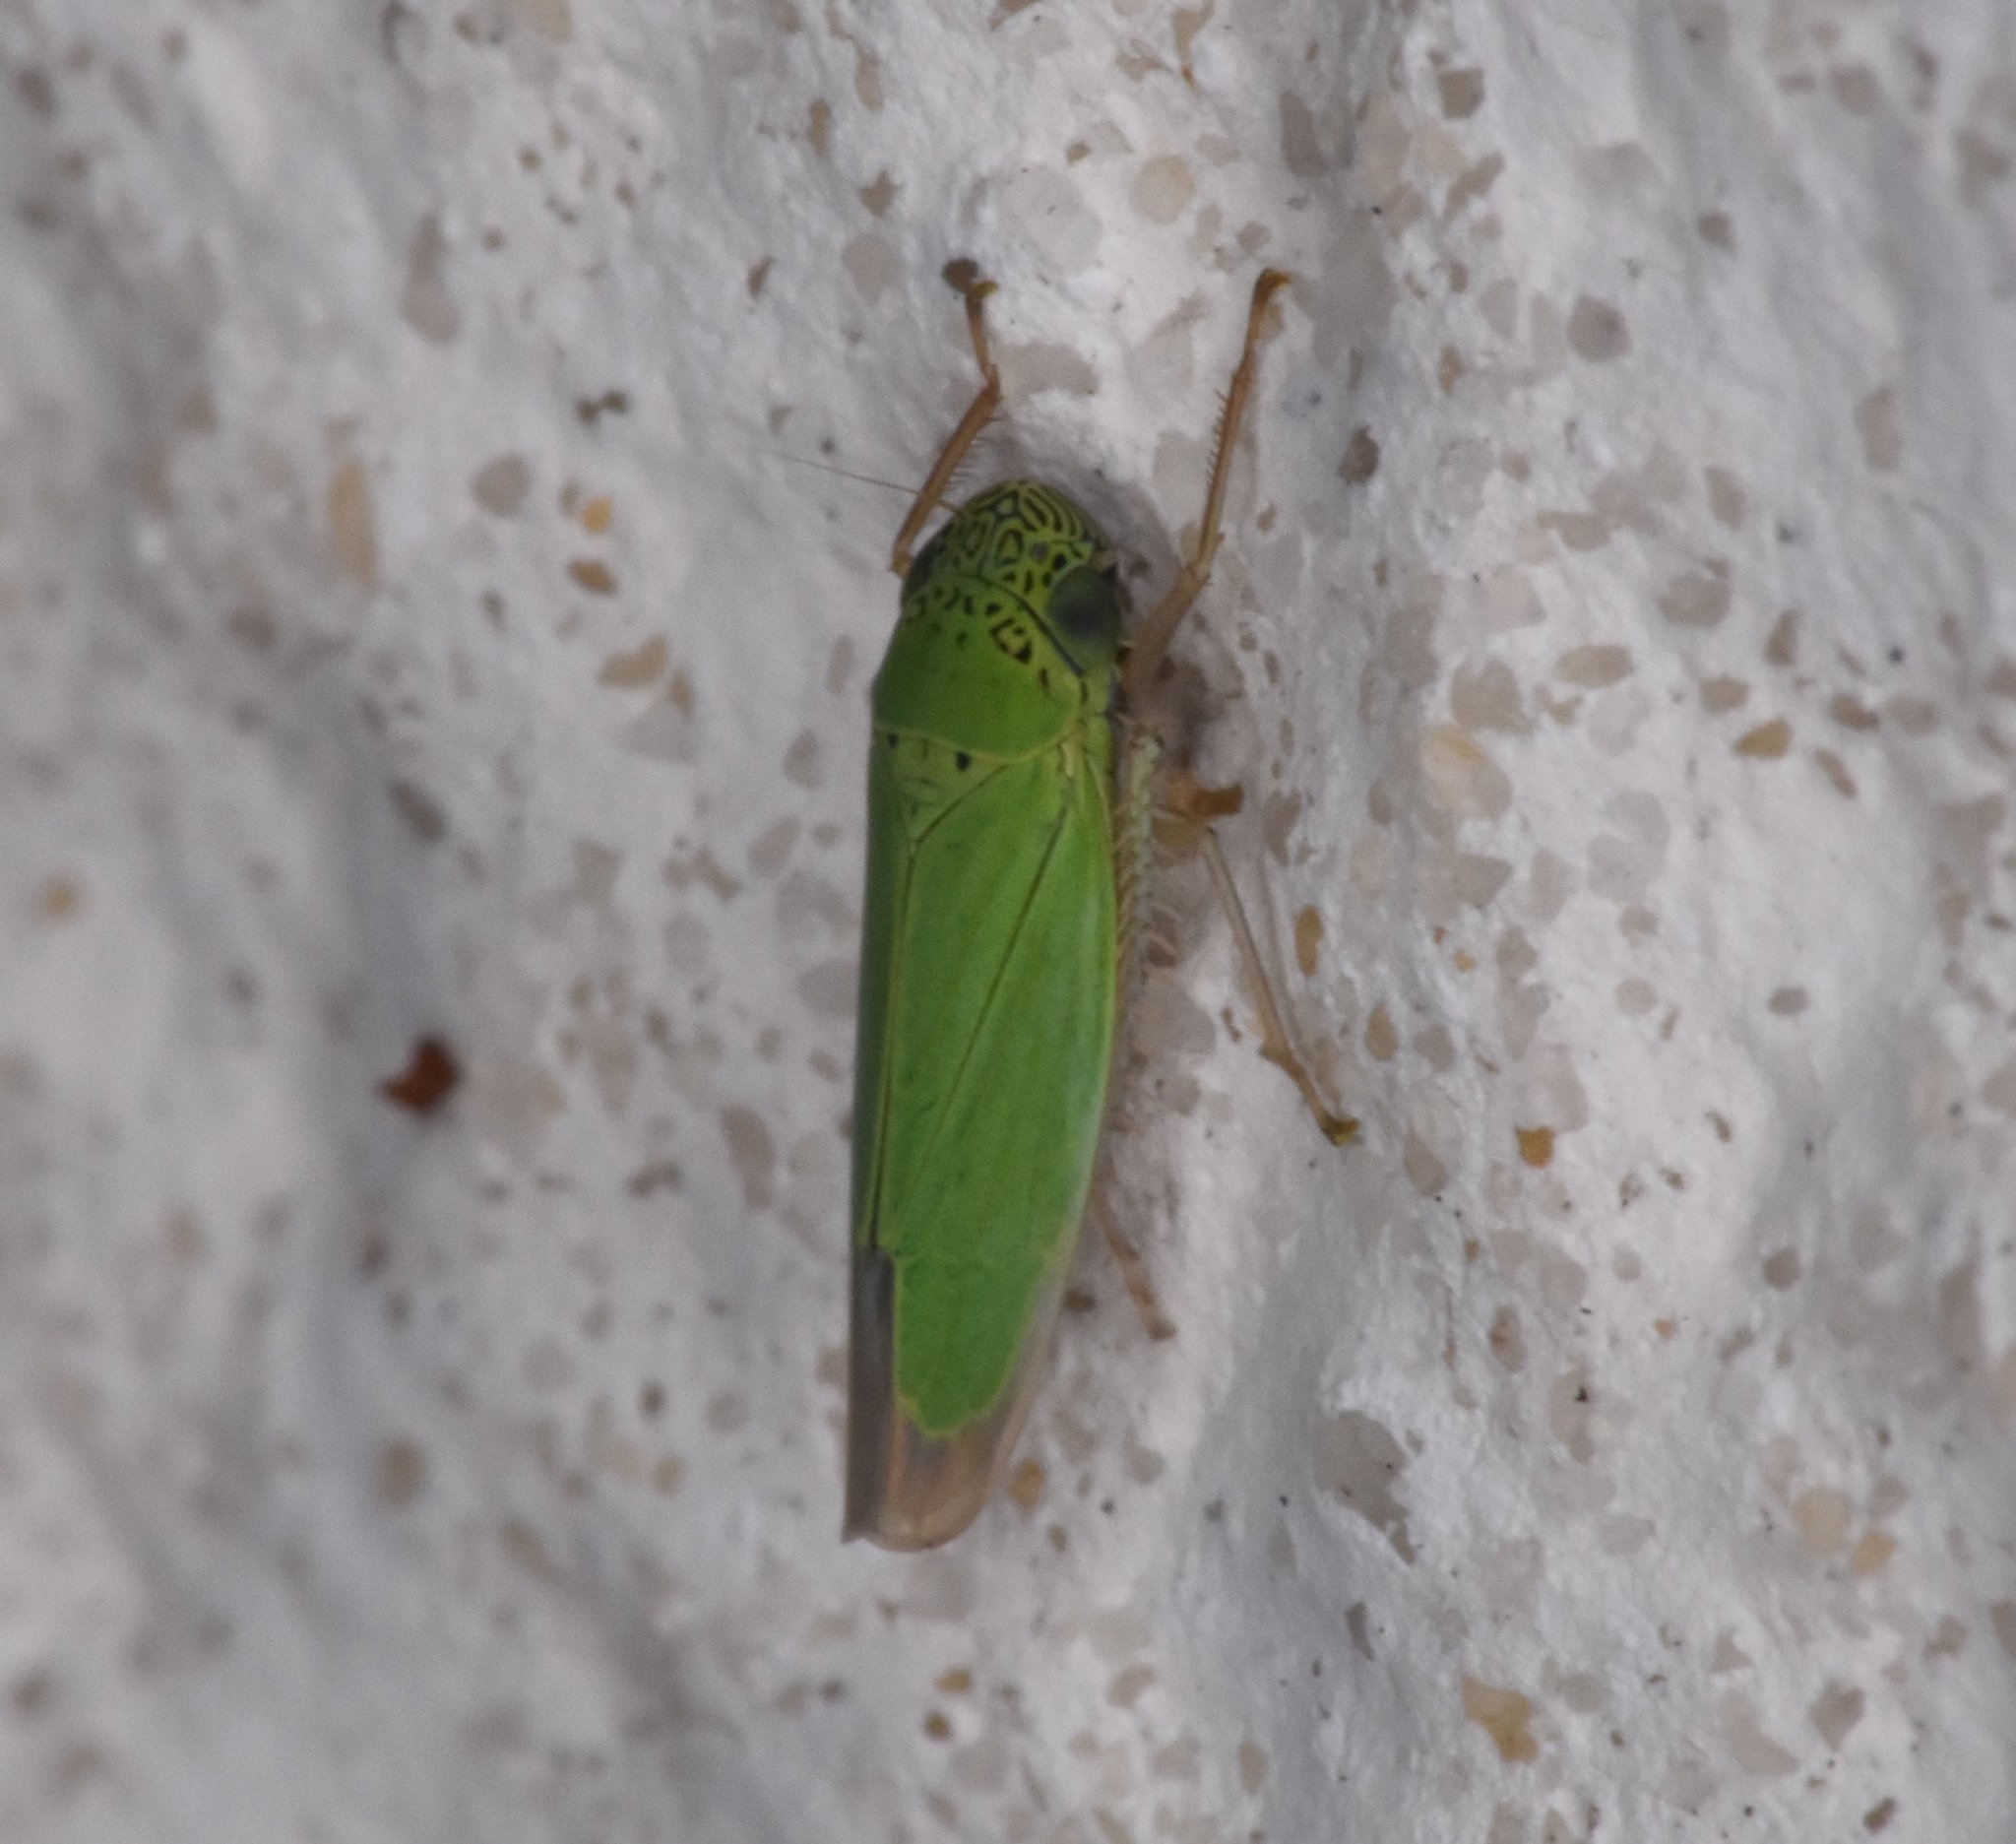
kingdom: Animalia
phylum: Arthropoda
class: Insecta
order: Hemiptera
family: Cicadellidae
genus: Hortensia
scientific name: Hortensia similis
